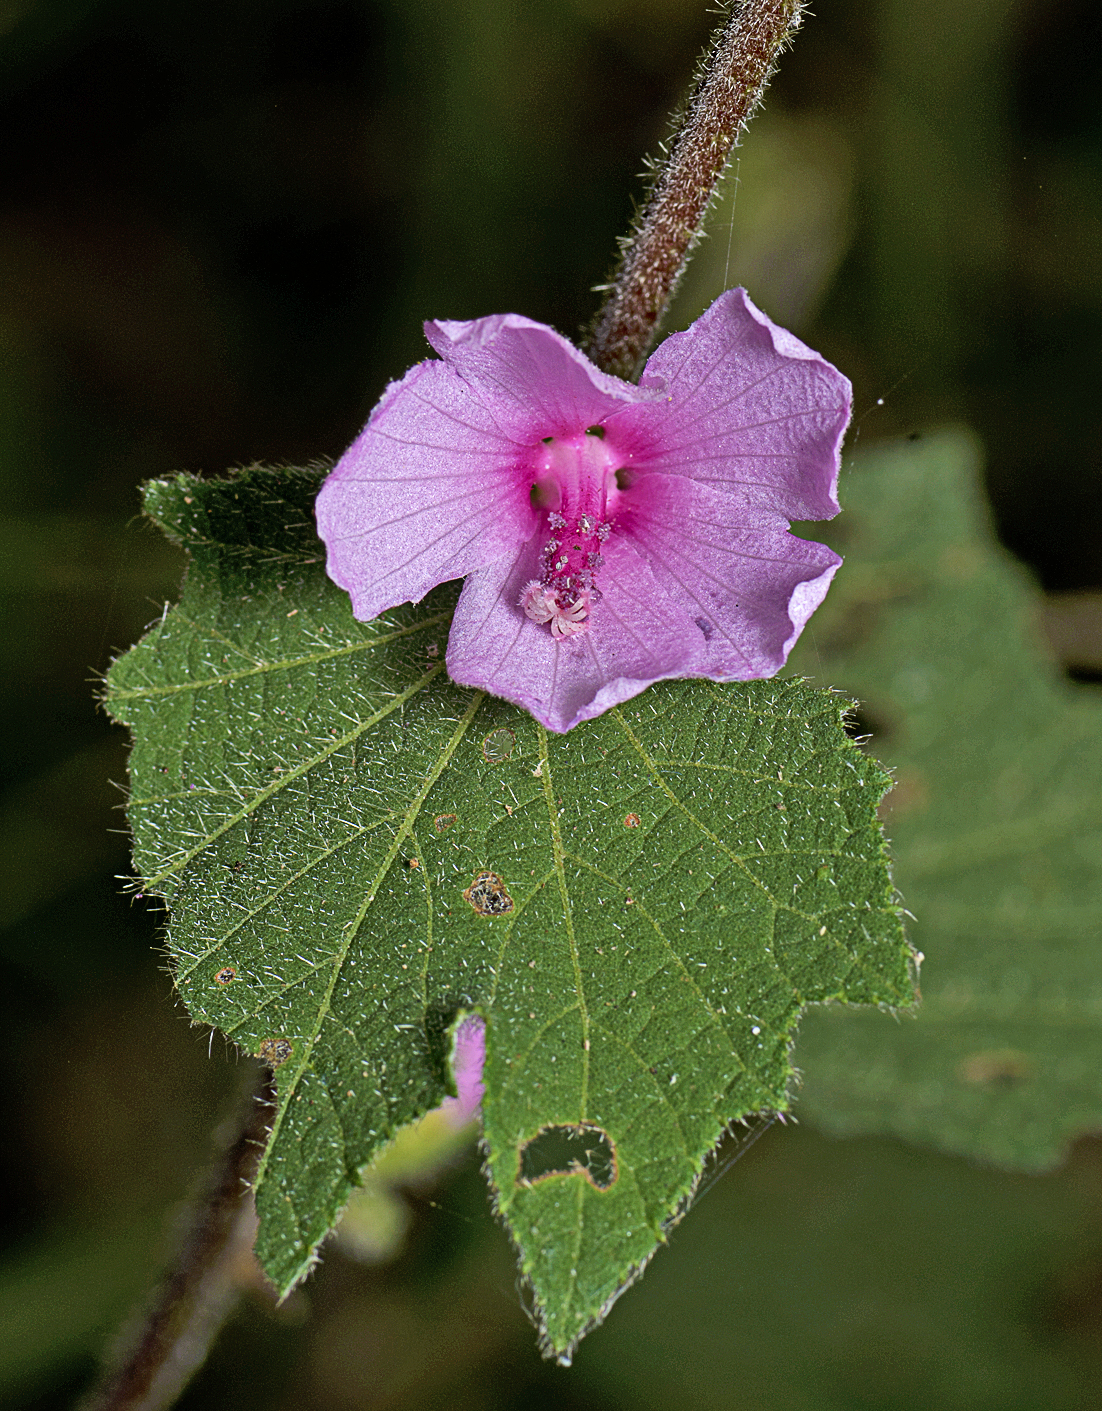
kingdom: Plantae
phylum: Tracheophyta
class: Magnoliopsida
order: Malvales
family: Malvaceae
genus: Urena
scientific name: Urena lobata
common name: Caesarweed
